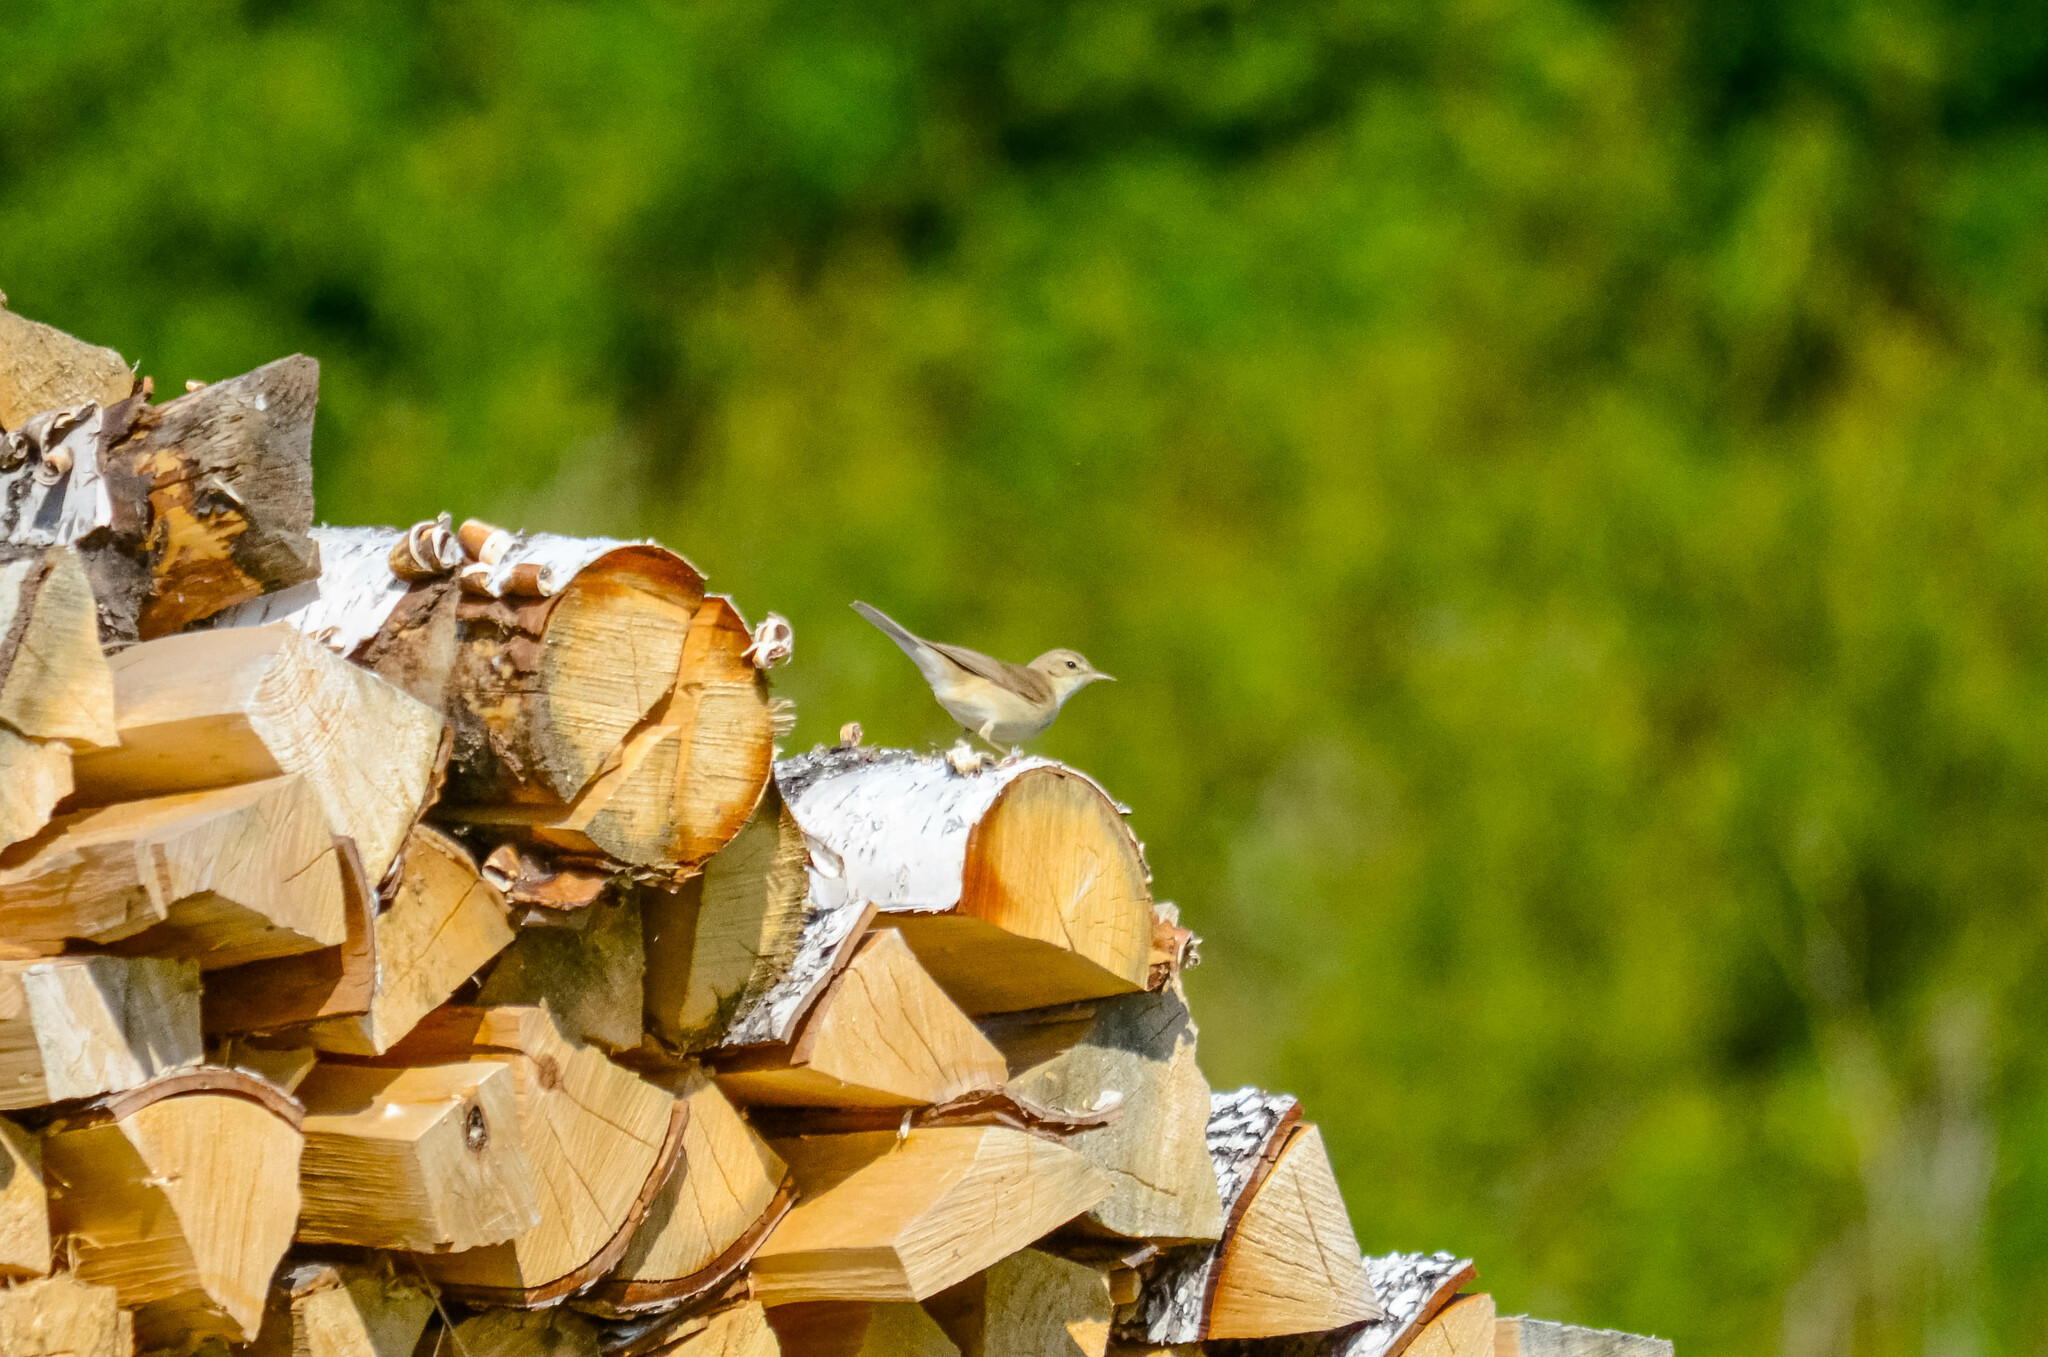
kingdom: Animalia
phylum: Chordata
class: Aves
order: Passeriformes
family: Acrocephalidae
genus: Iduna
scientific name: Iduna caligata
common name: Booted warbler
